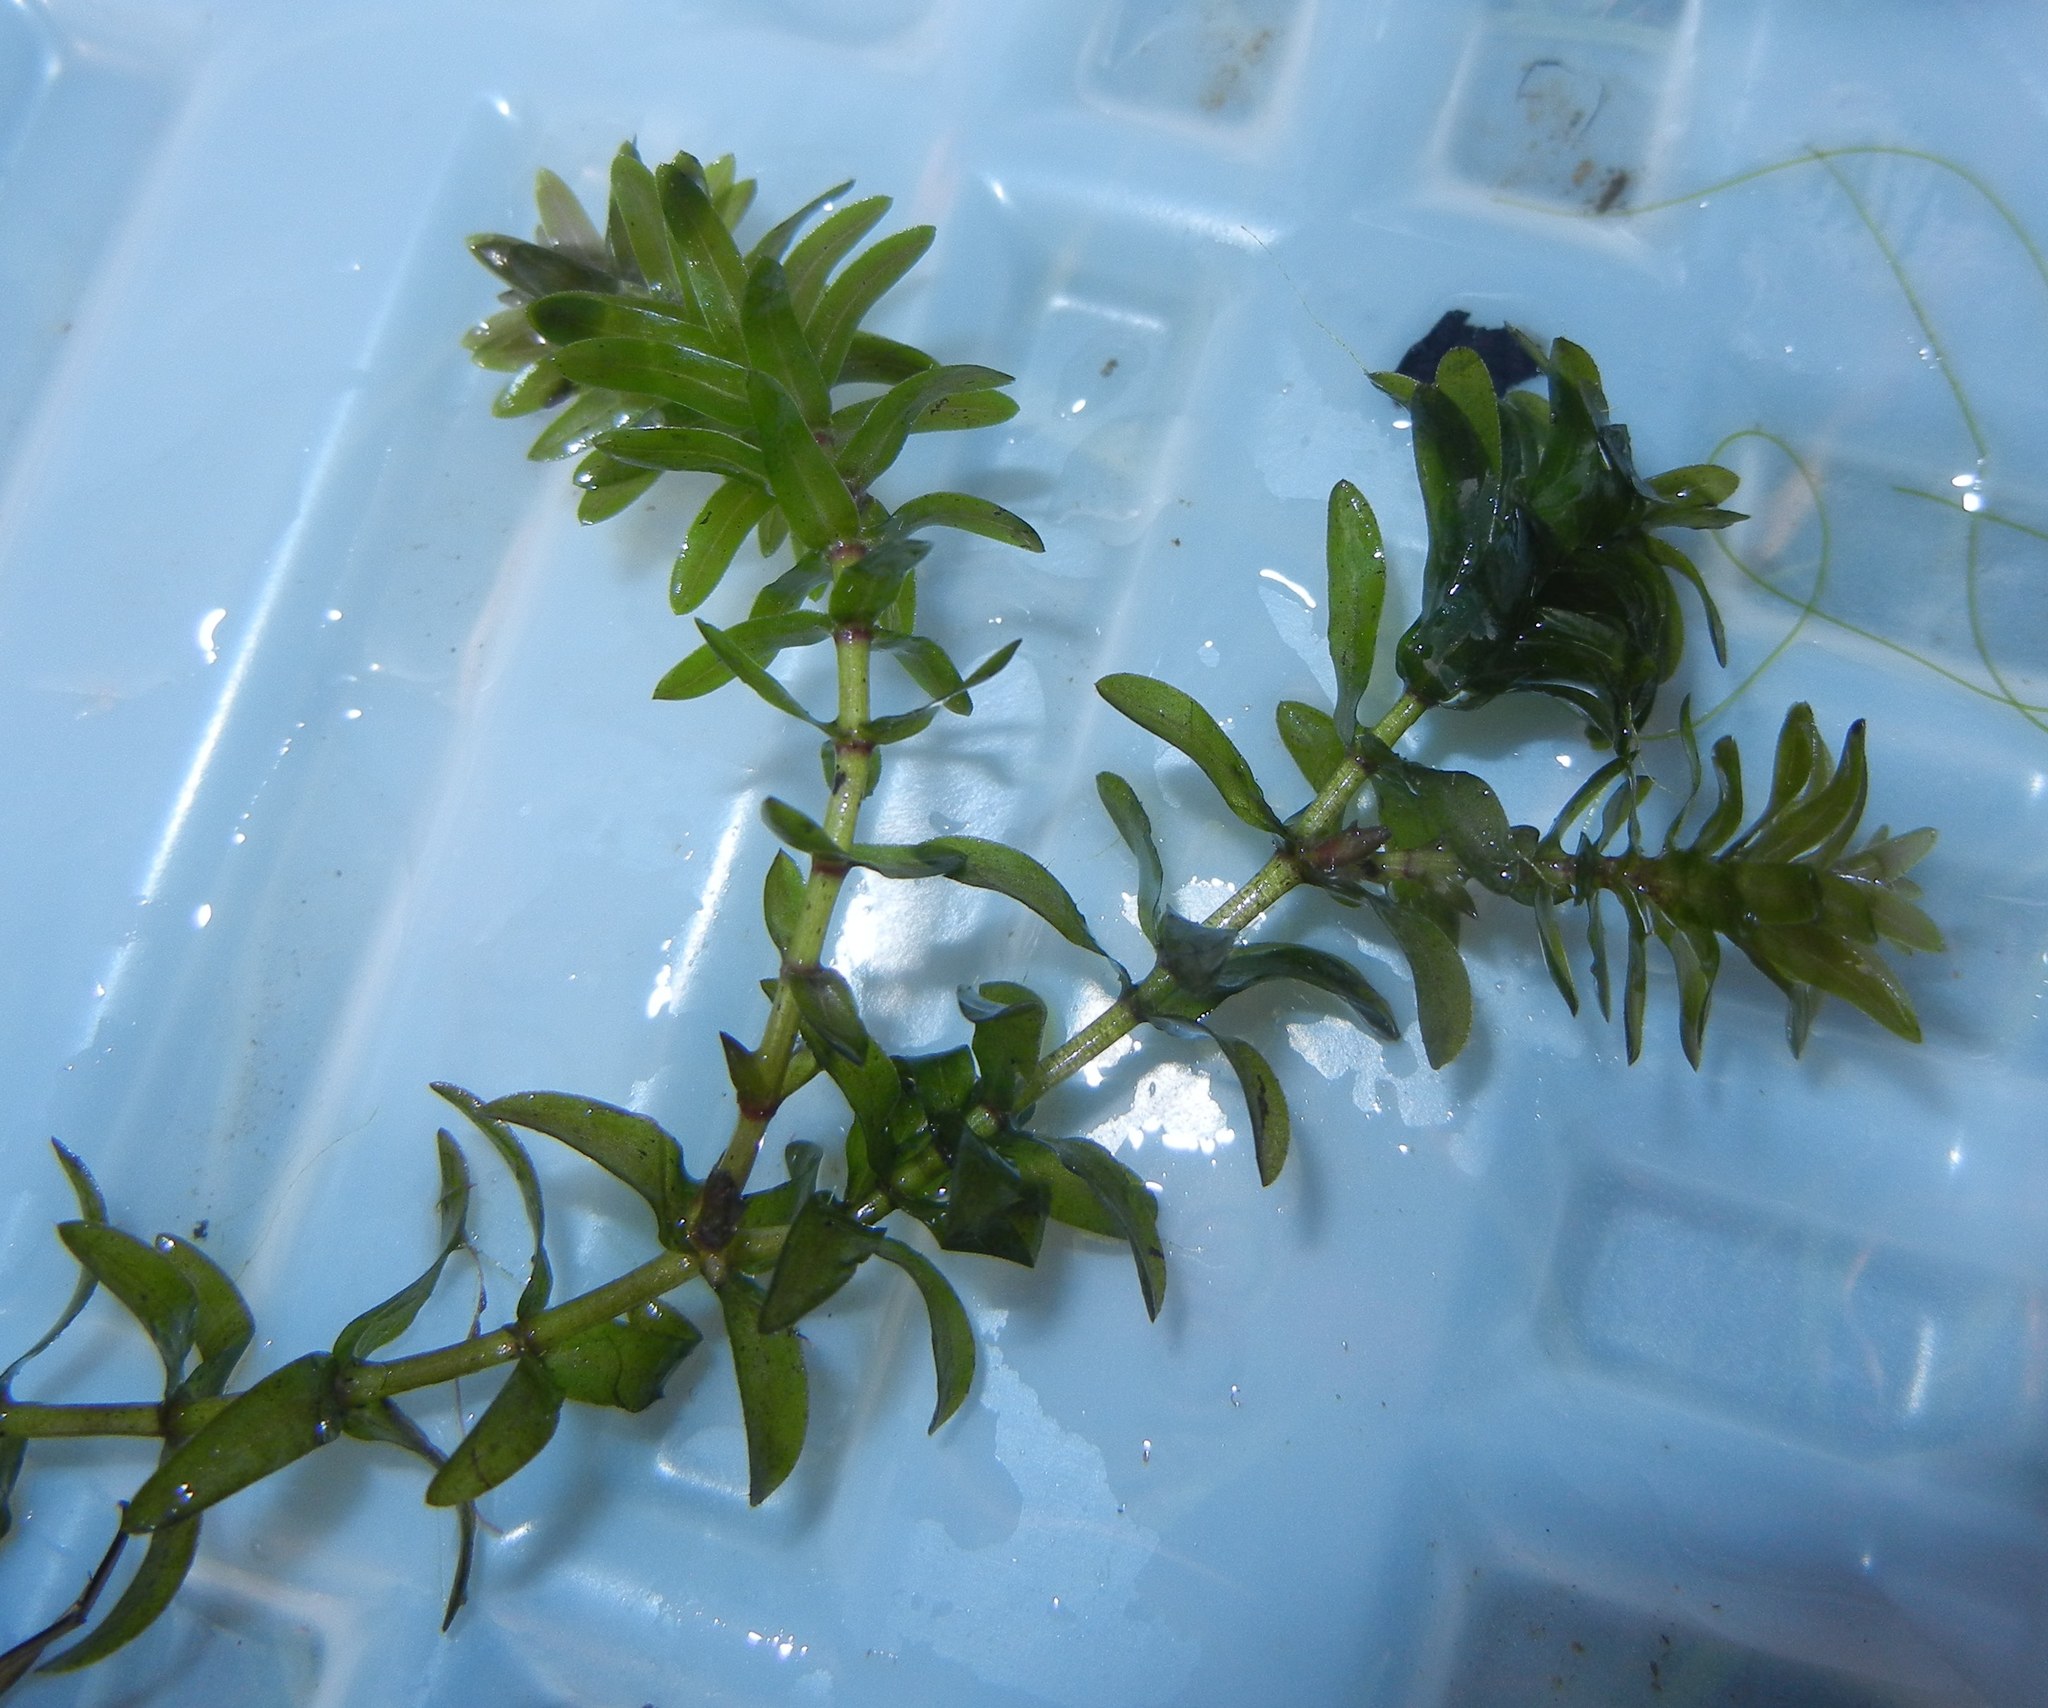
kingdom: Plantae
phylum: Tracheophyta
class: Liliopsida
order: Alismatales
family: Hydrocharitaceae
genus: Elodea
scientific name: Elodea canadensis
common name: Canadian waterweed
